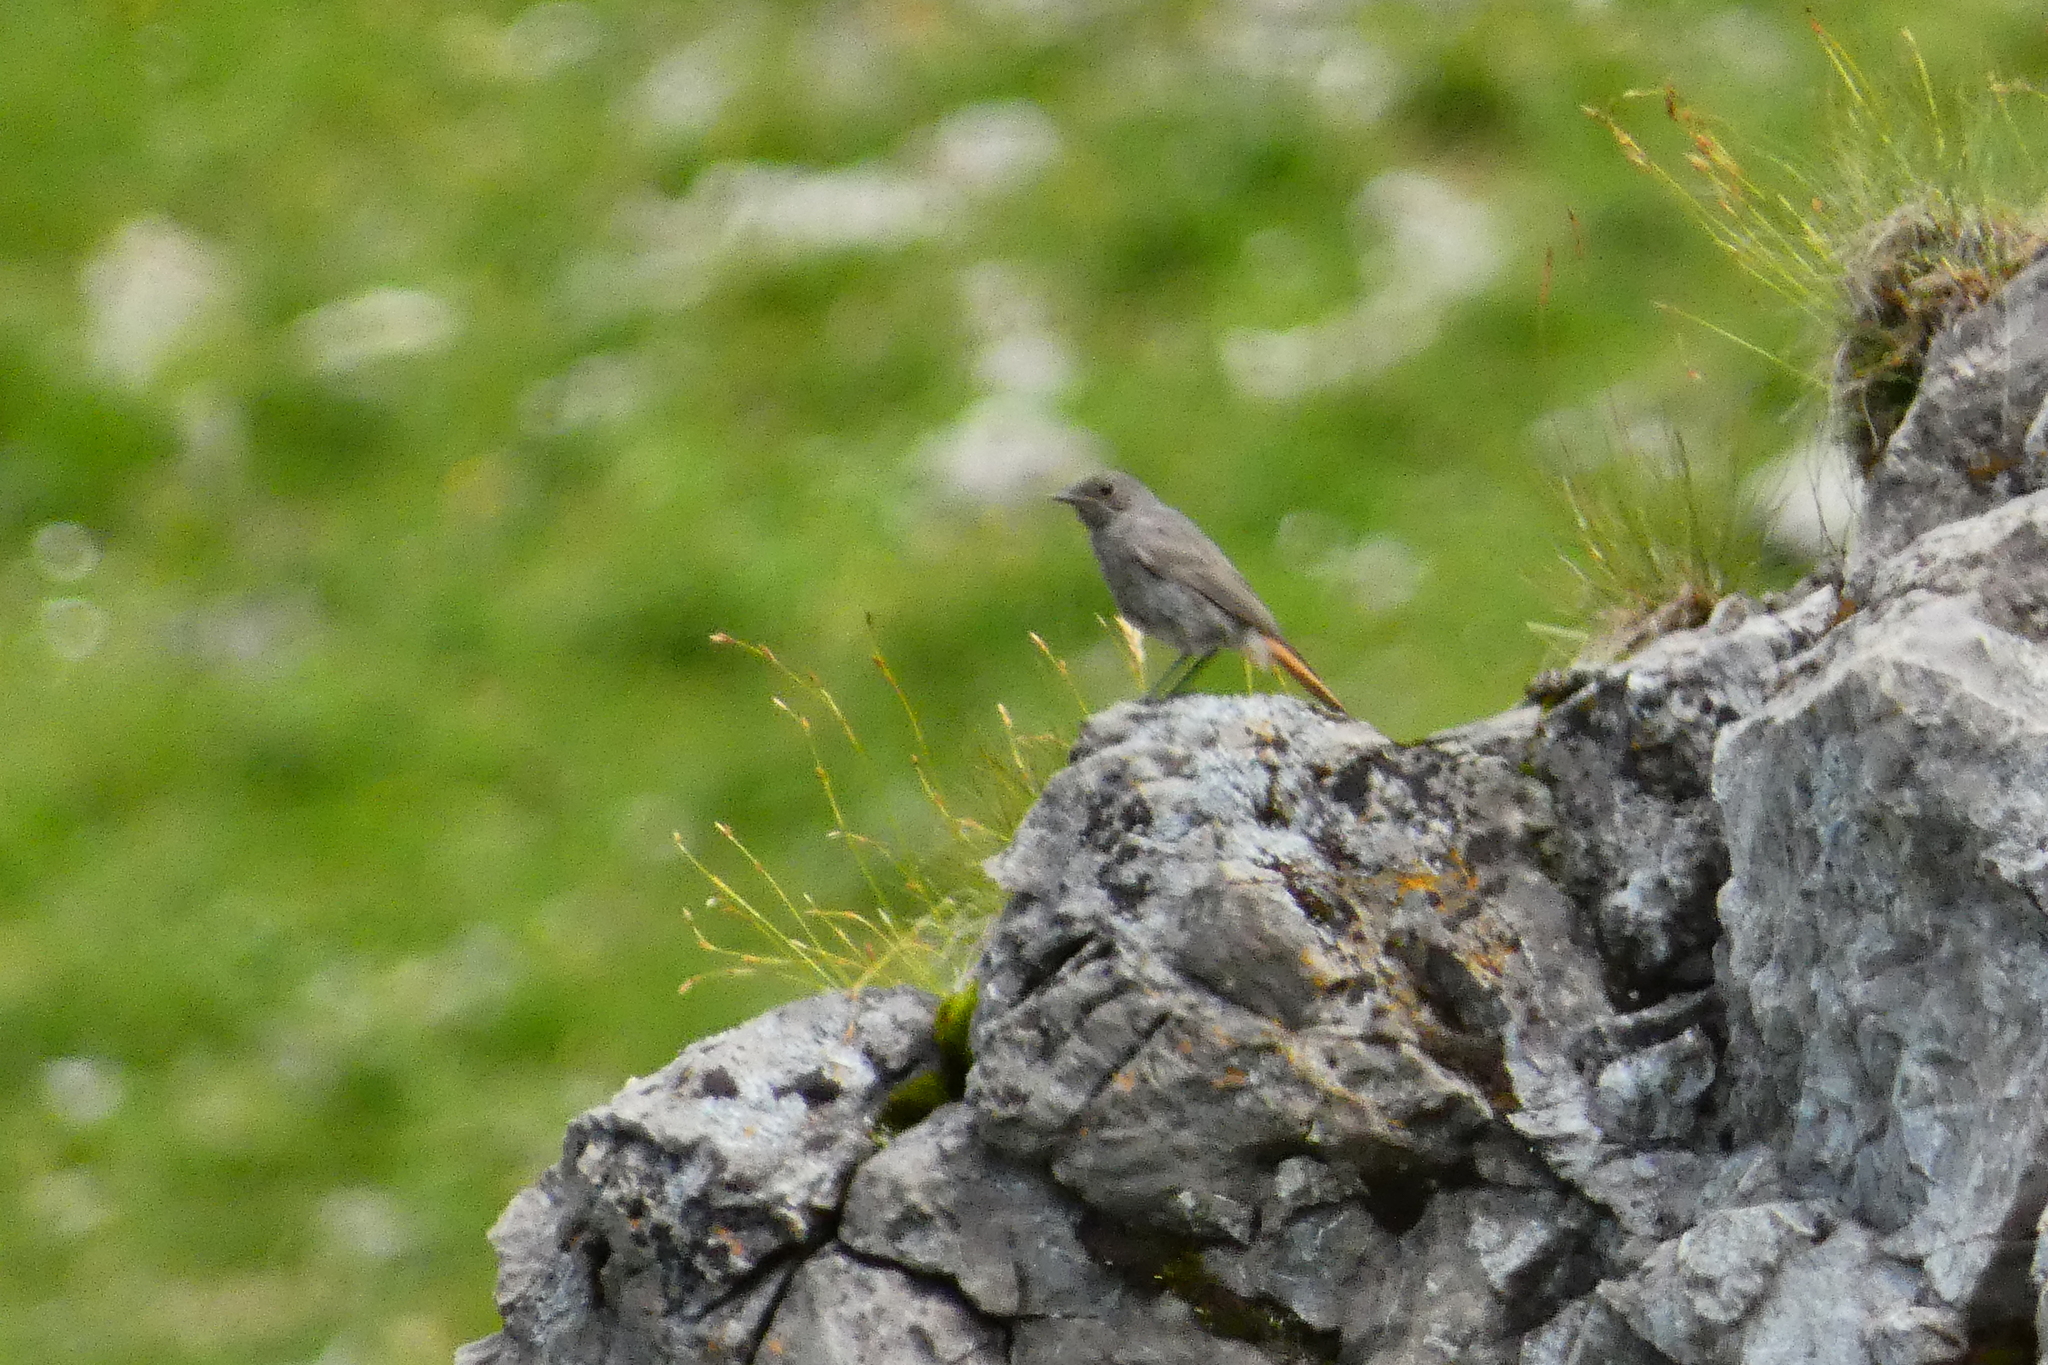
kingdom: Animalia
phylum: Chordata
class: Aves
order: Passeriformes
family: Muscicapidae
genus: Phoenicurus
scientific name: Phoenicurus ochruros
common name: Black redstart
